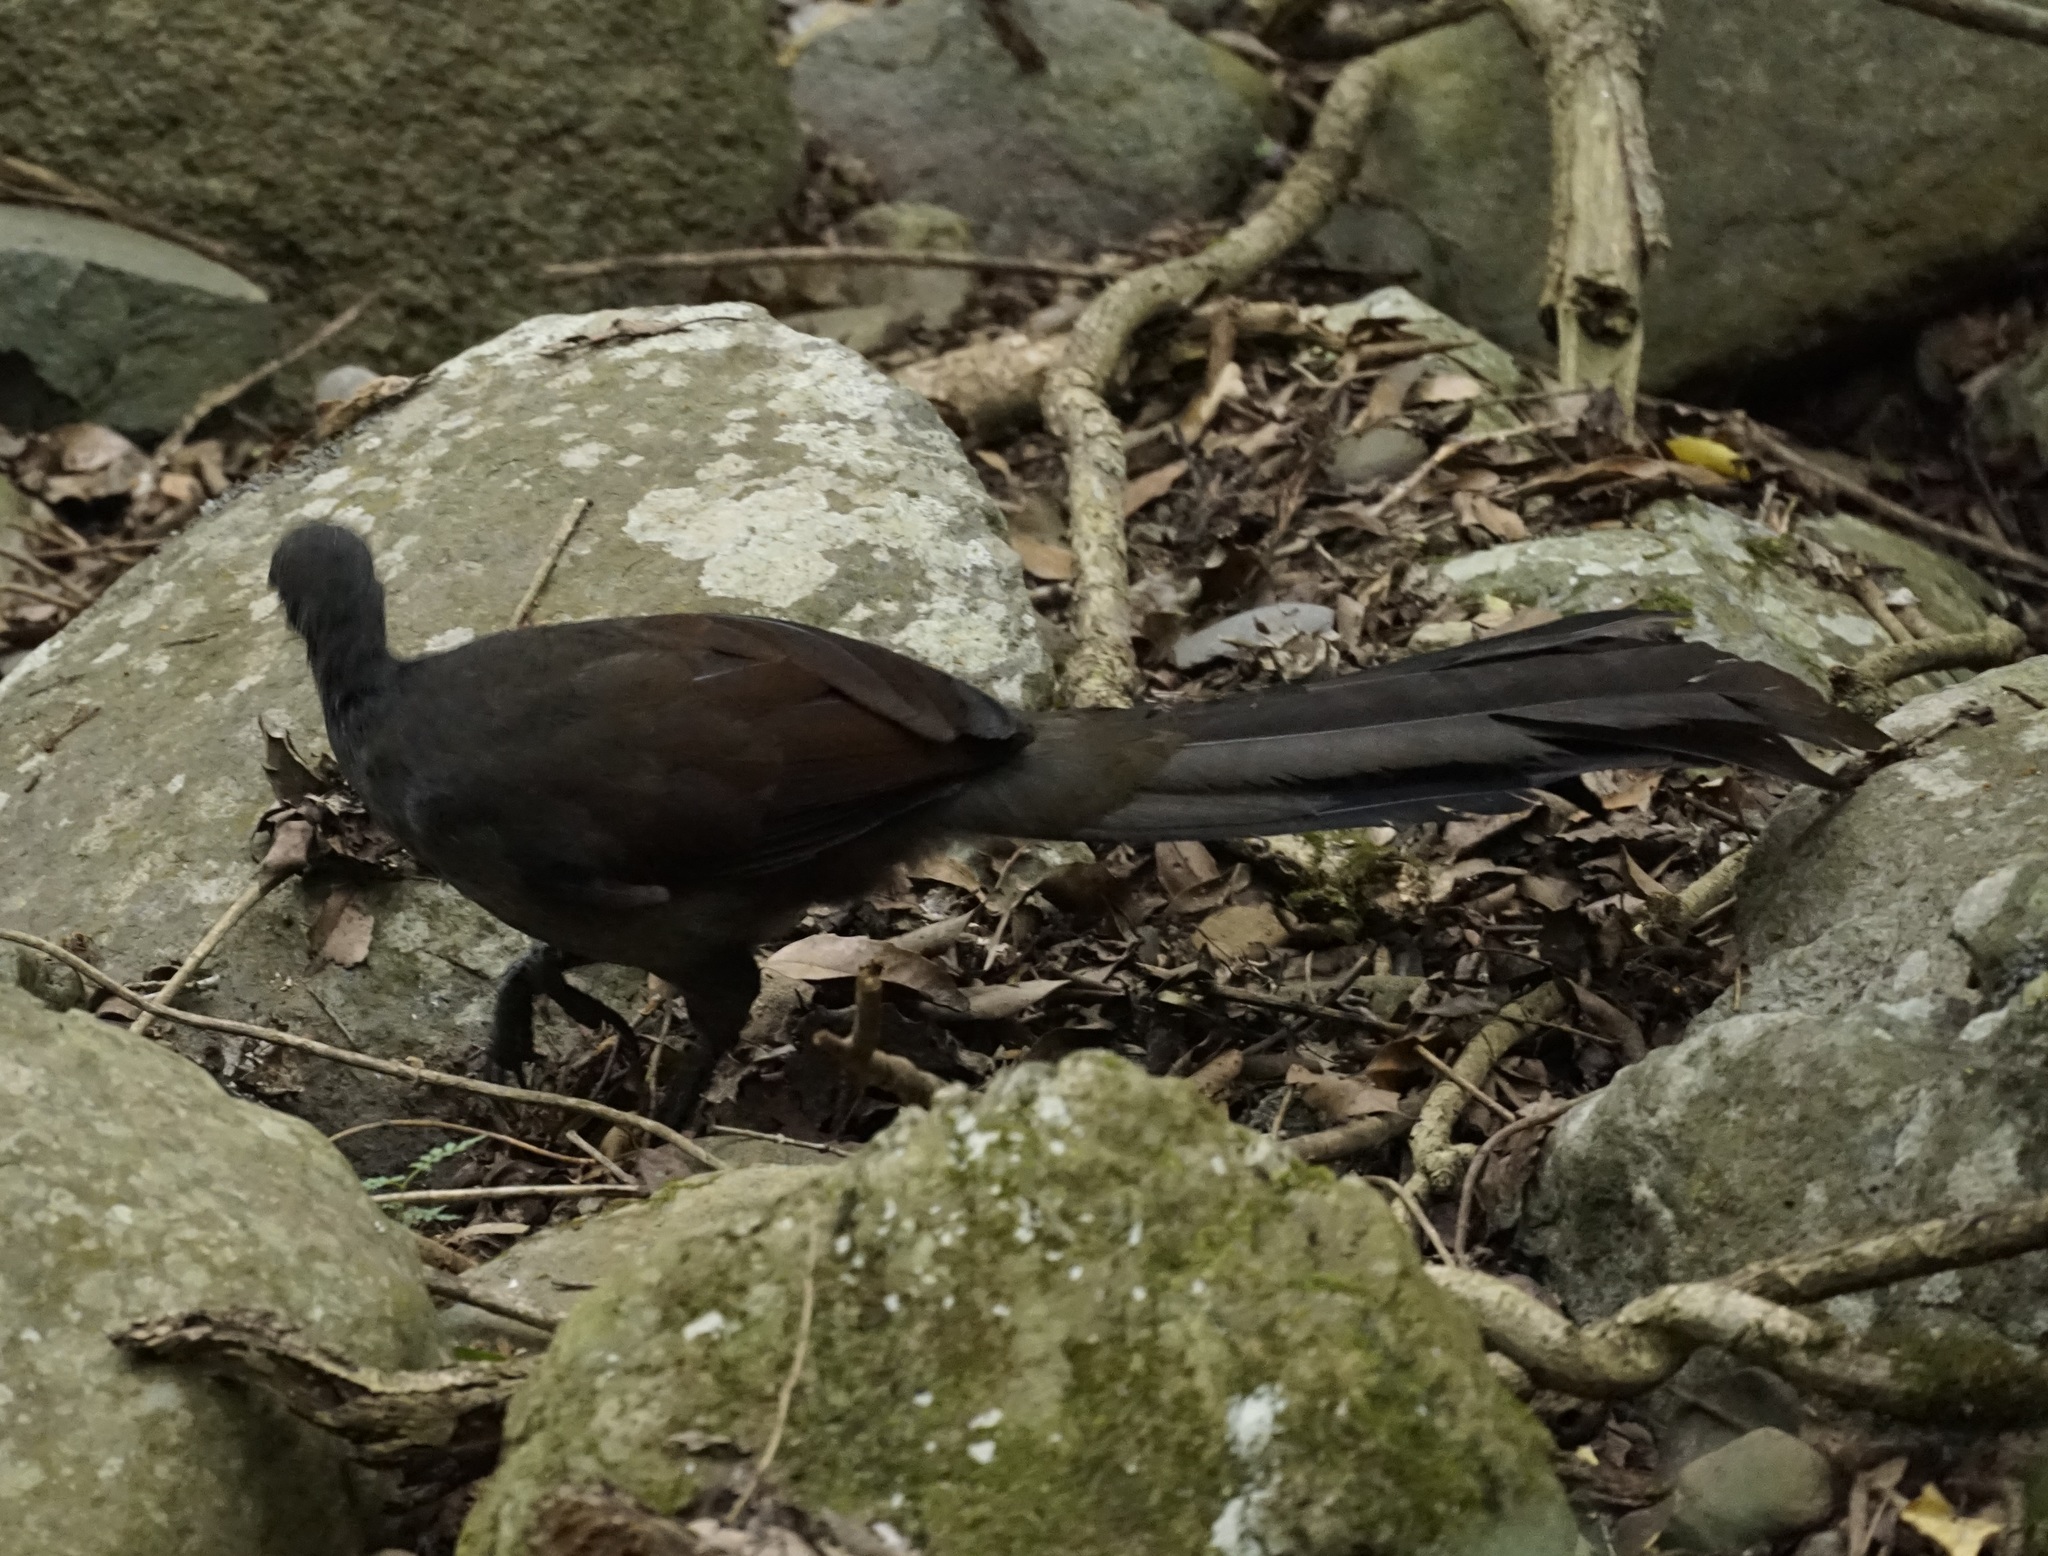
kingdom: Animalia
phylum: Chordata
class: Aves
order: Passeriformes
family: Menuridae
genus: Menura
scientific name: Menura novaehollandiae
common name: Superb lyrebird
